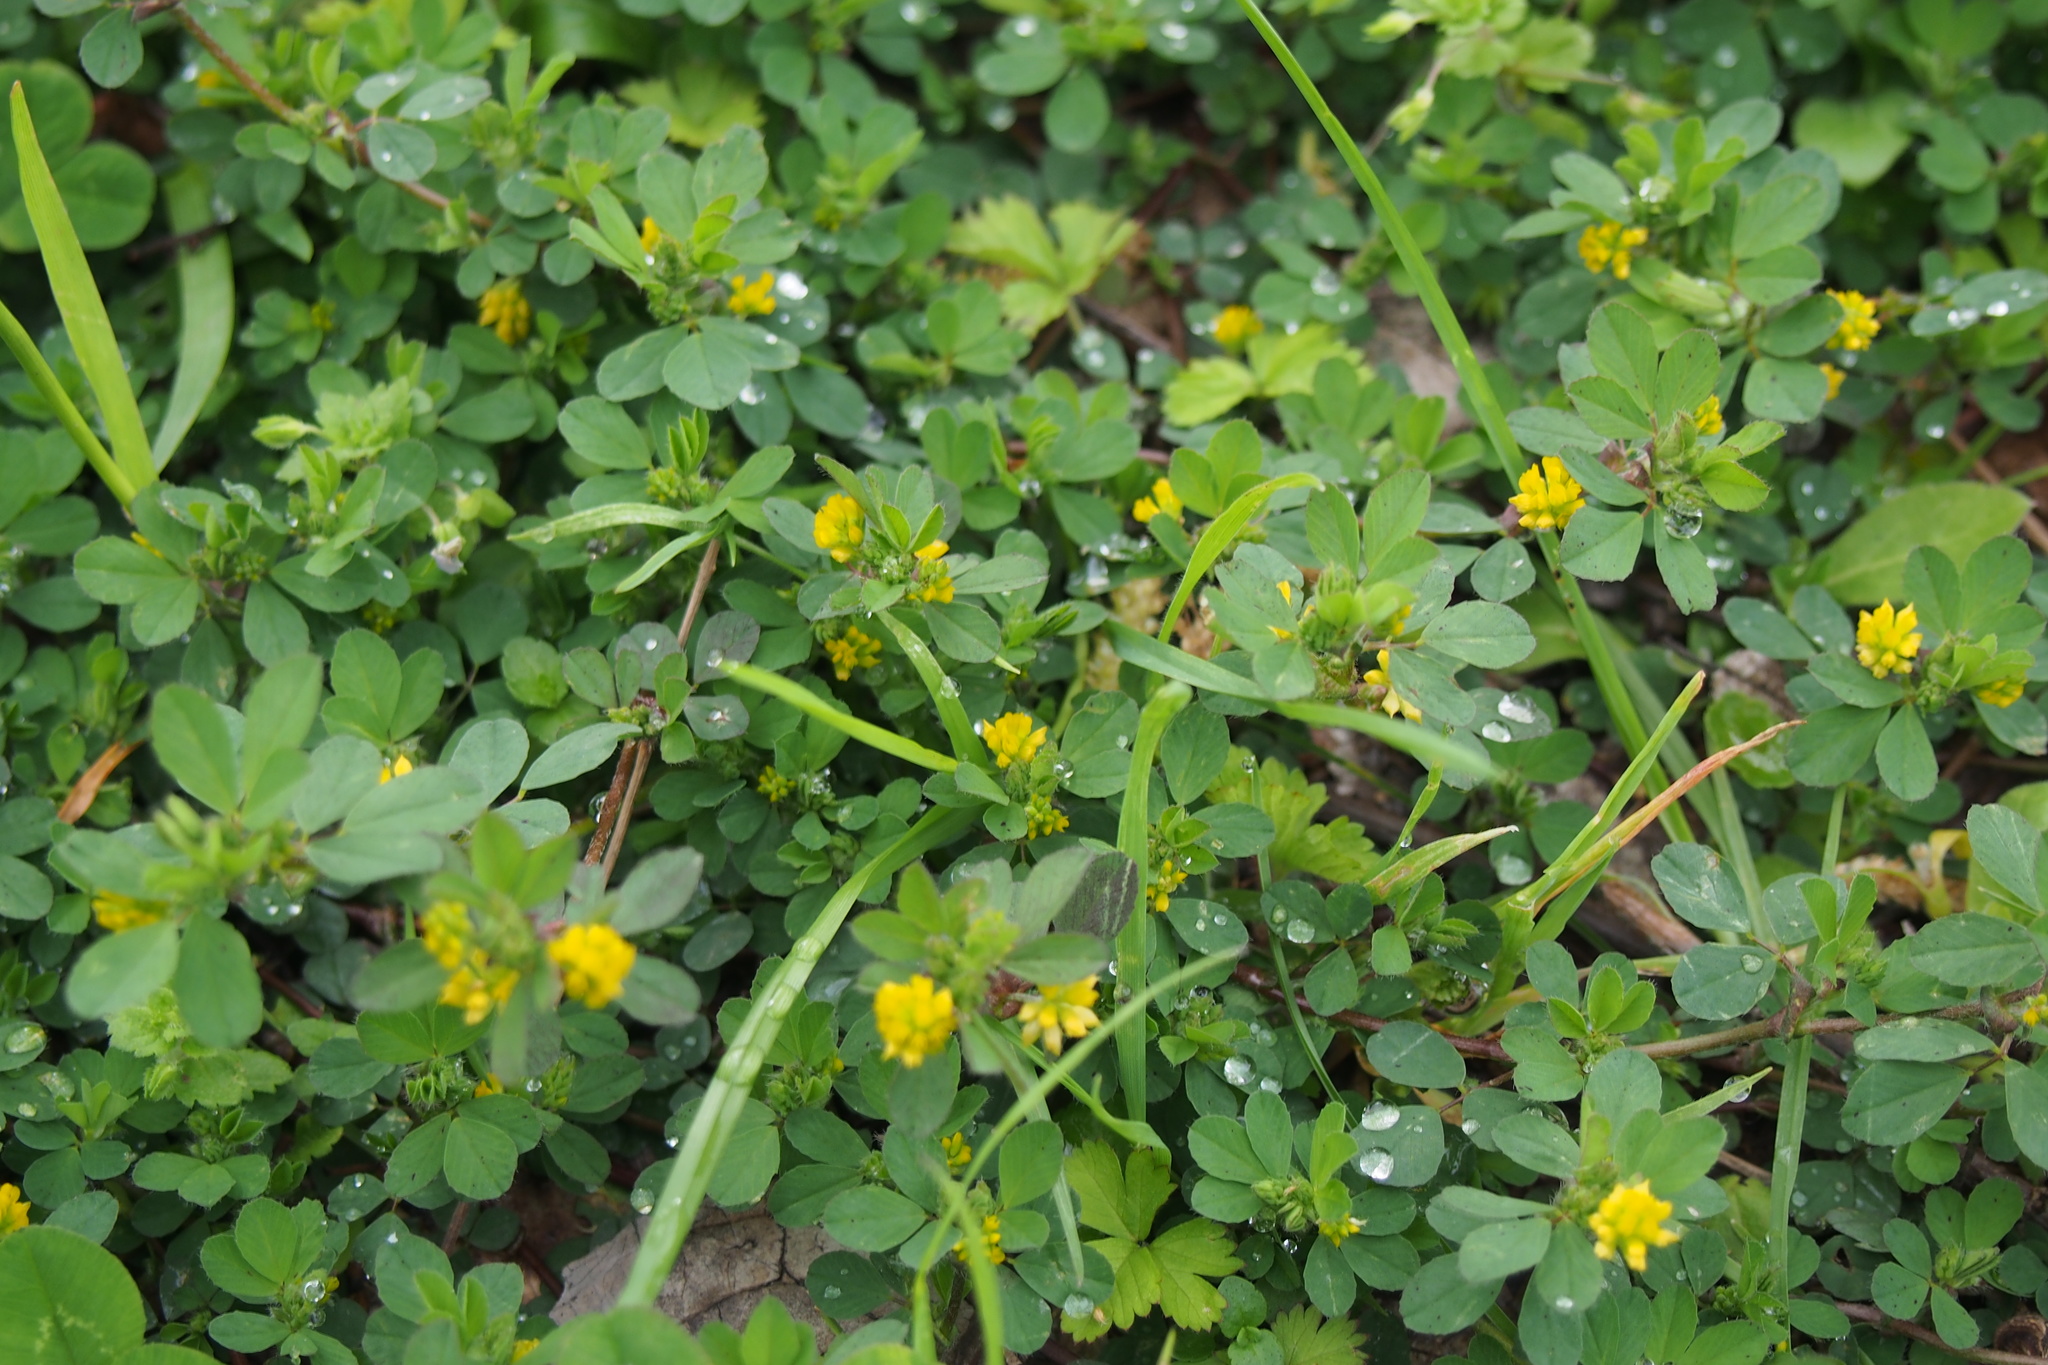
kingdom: Plantae
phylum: Tracheophyta
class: Magnoliopsida
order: Fabales
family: Fabaceae
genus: Trifolium
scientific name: Trifolium dubium
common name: Suckling clover
